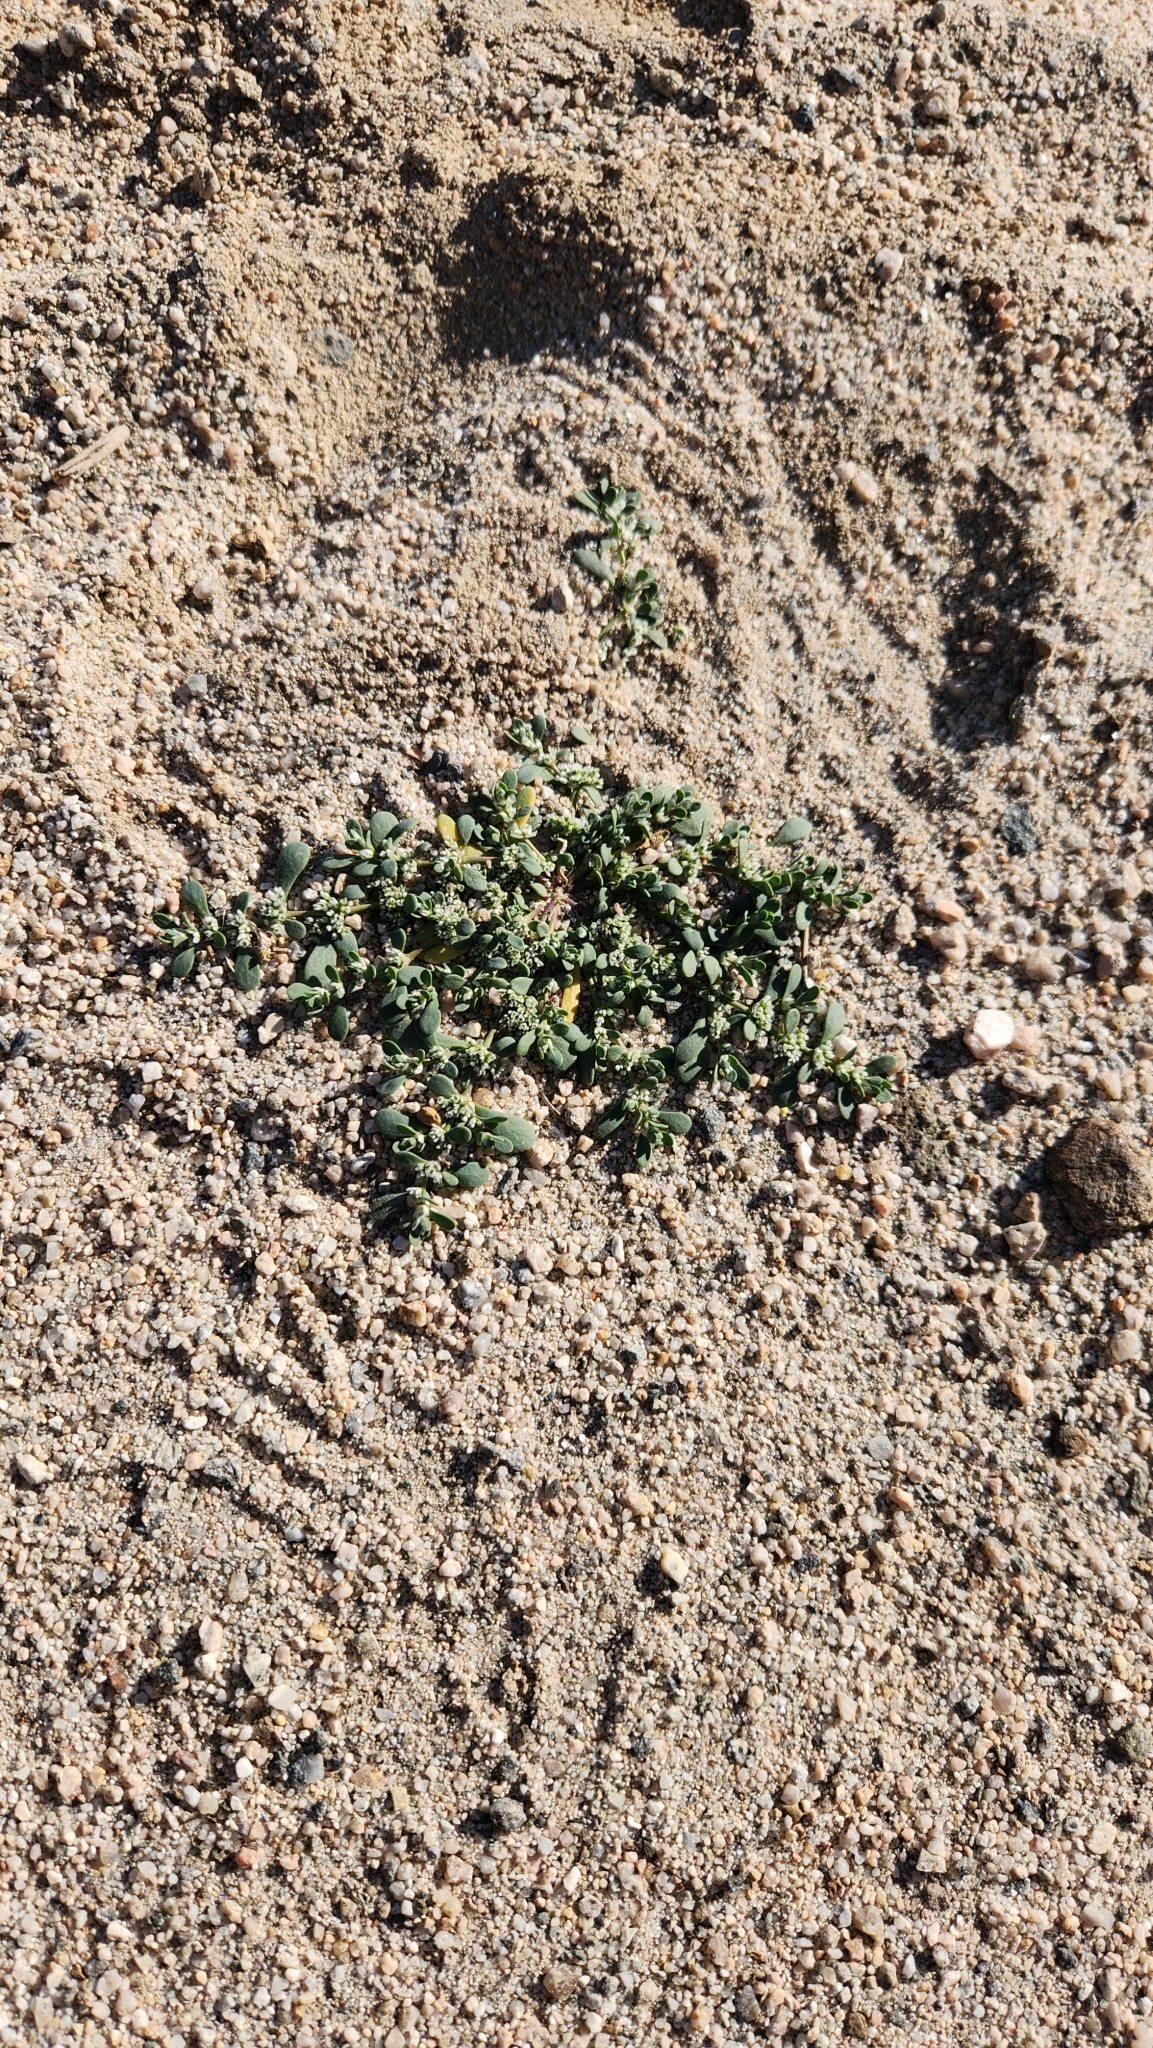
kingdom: Plantae
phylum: Tracheophyta
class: Magnoliopsida
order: Caryophyllales
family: Caryophyllaceae
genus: Achyronychia
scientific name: Achyronychia cooperi
